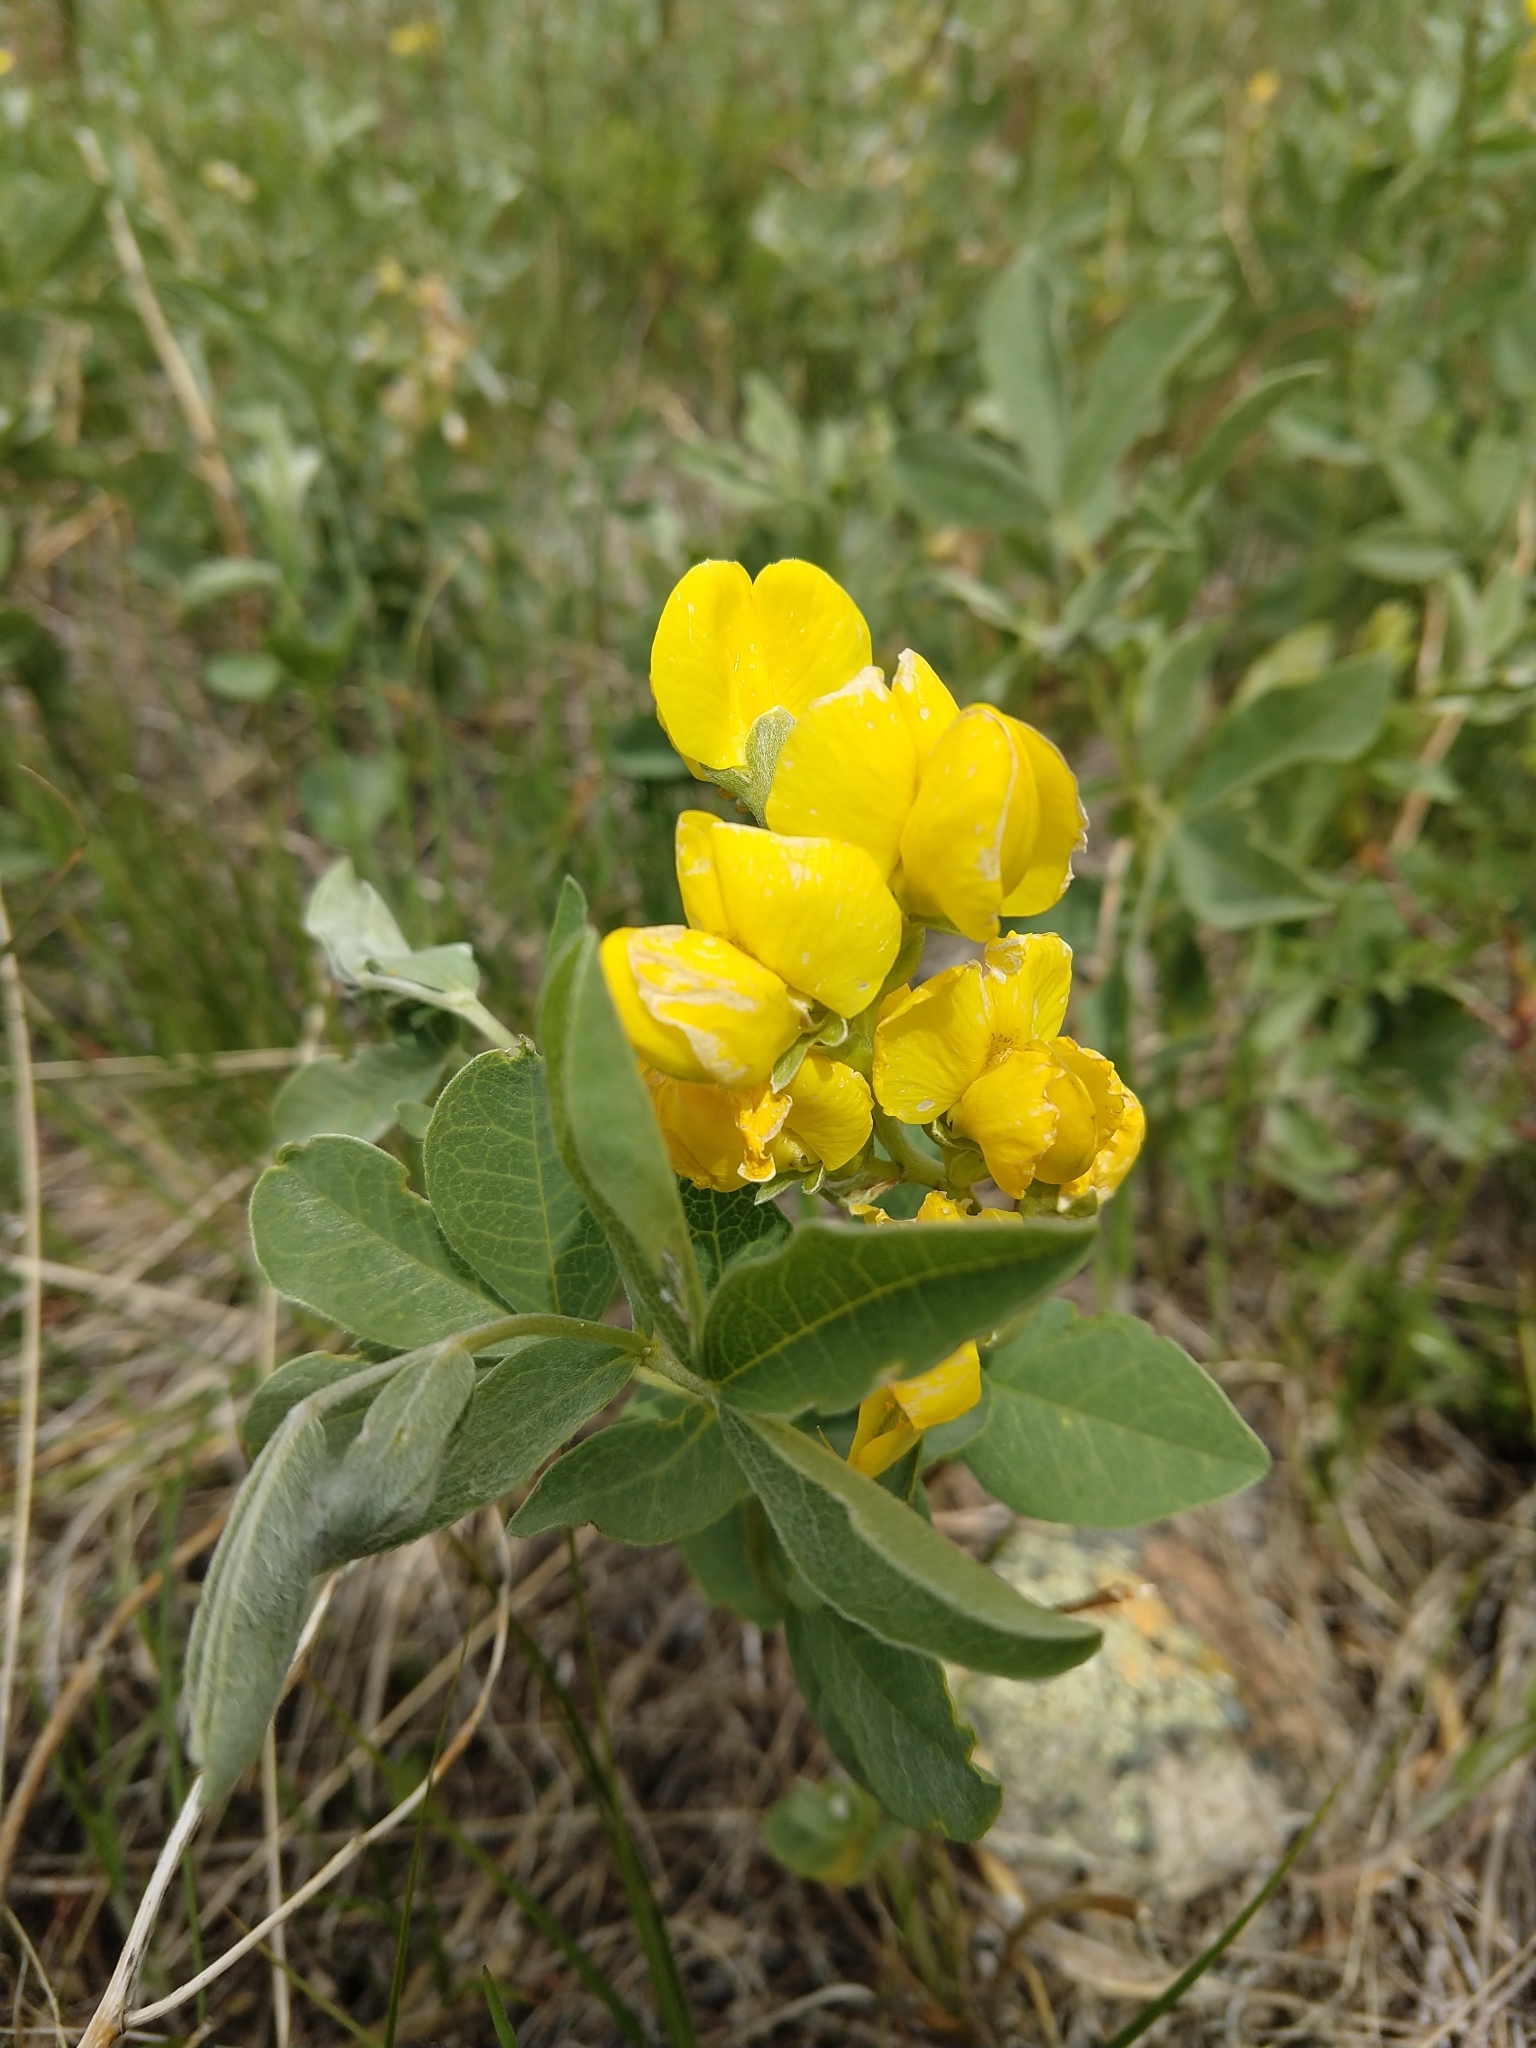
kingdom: Plantae
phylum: Tracheophyta
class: Magnoliopsida
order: Fabales
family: Fabaceae
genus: Thermopsis
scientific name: Thermopsis rhombifolia
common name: Circle-pod-pea
